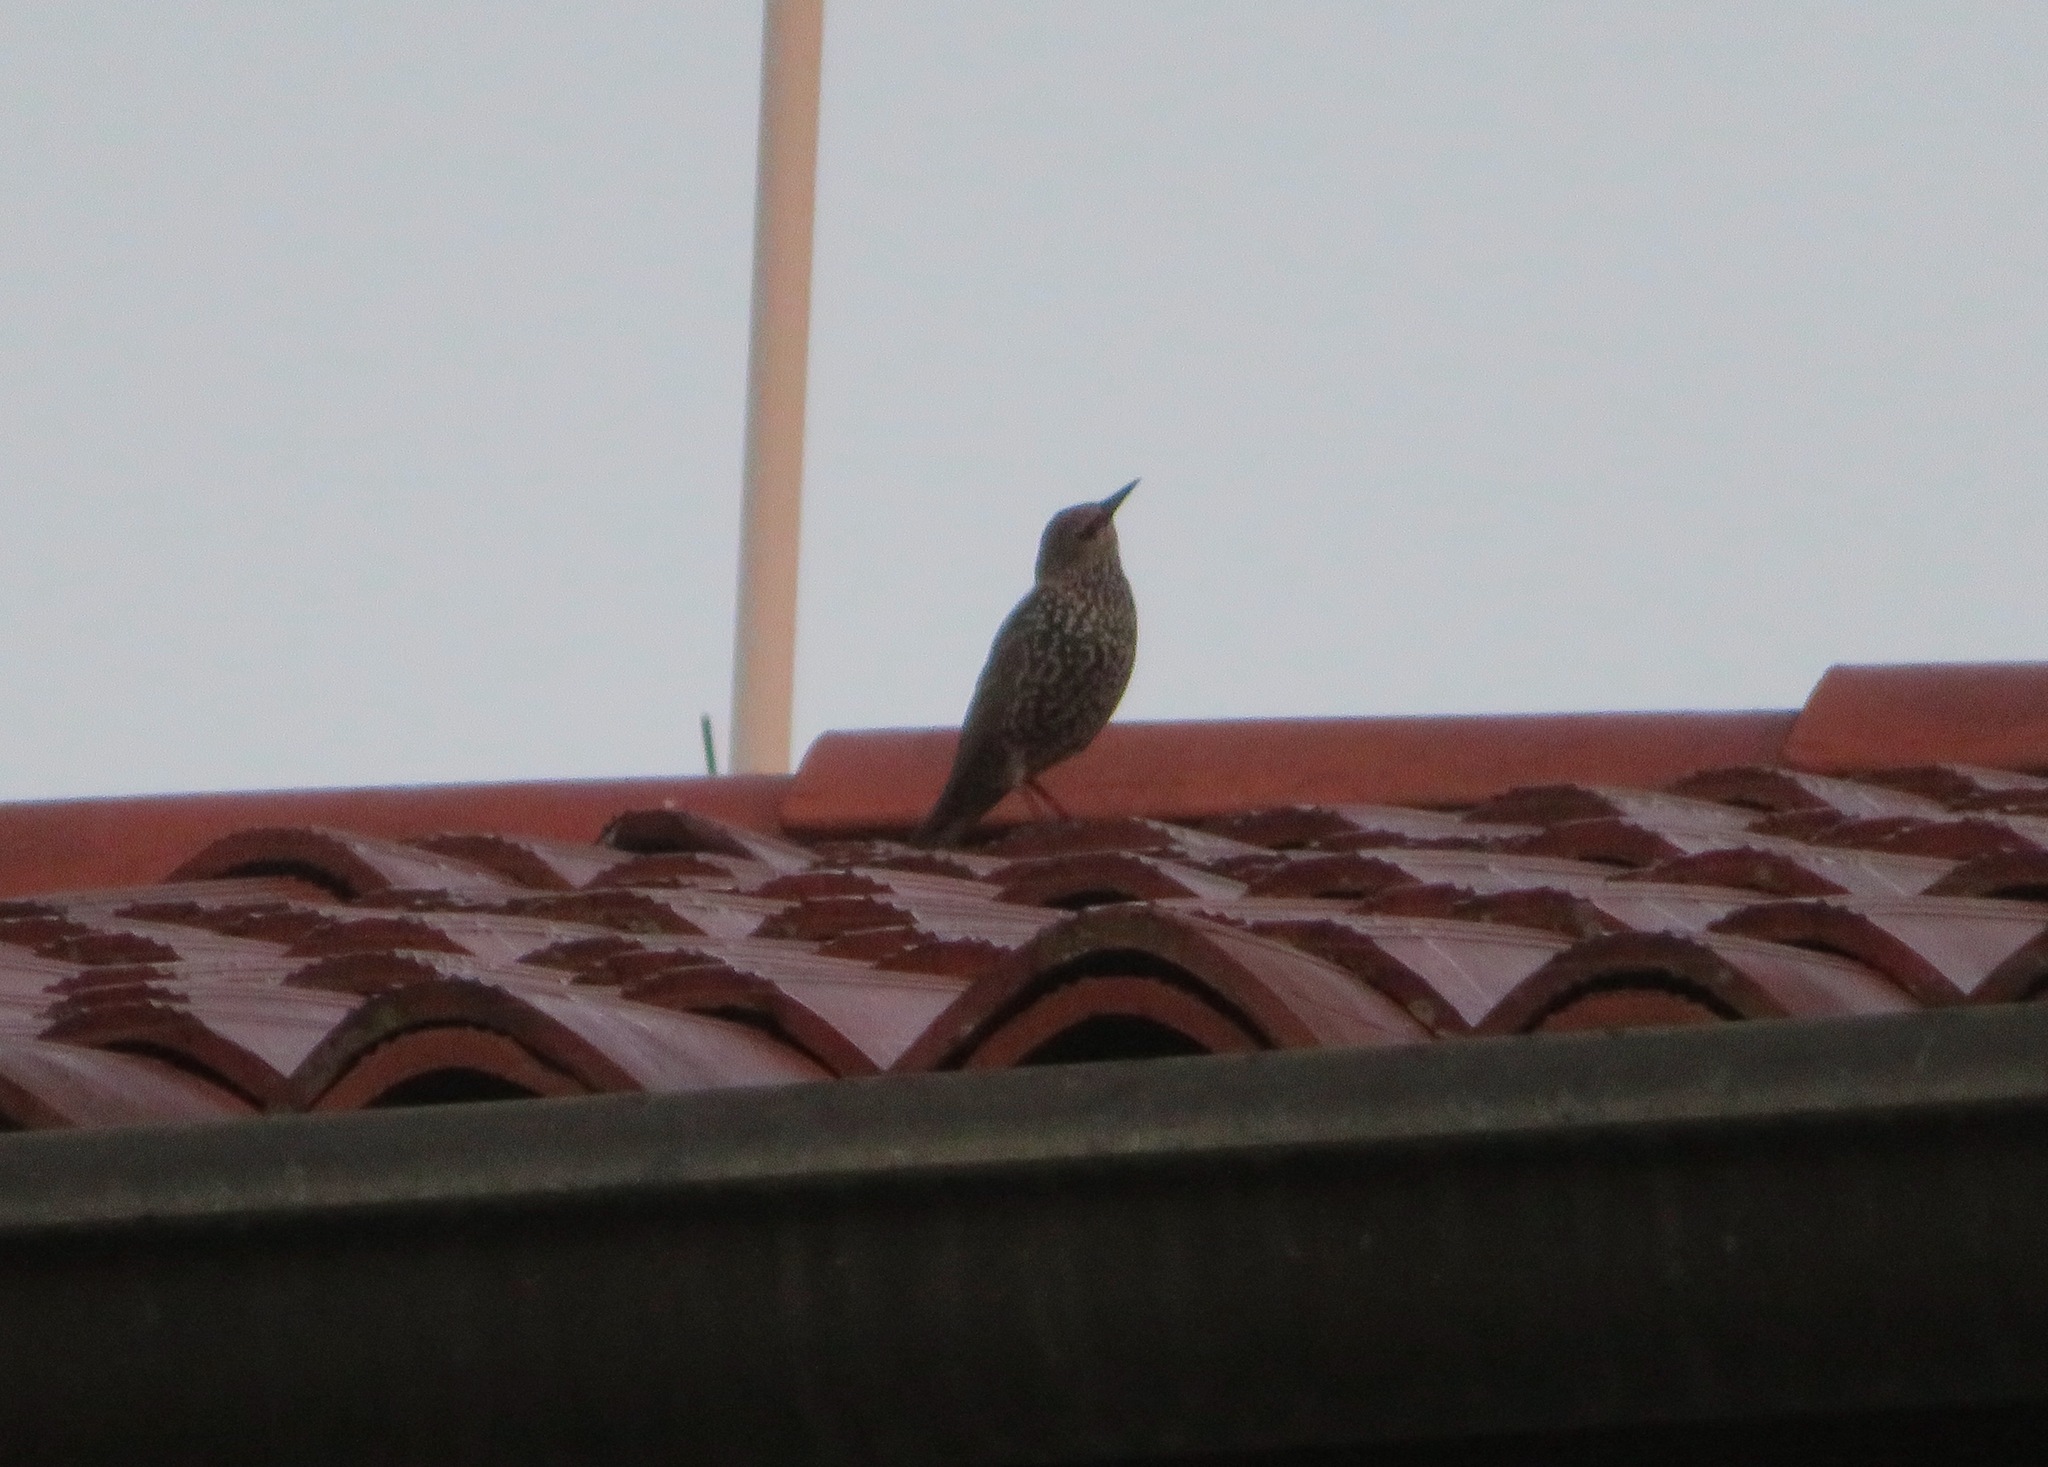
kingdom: Animalia
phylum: Chordata
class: Aves
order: Passeriformes
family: Sturnidae
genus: Sturnus
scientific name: Sturnus vulgaris
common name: Common starling
